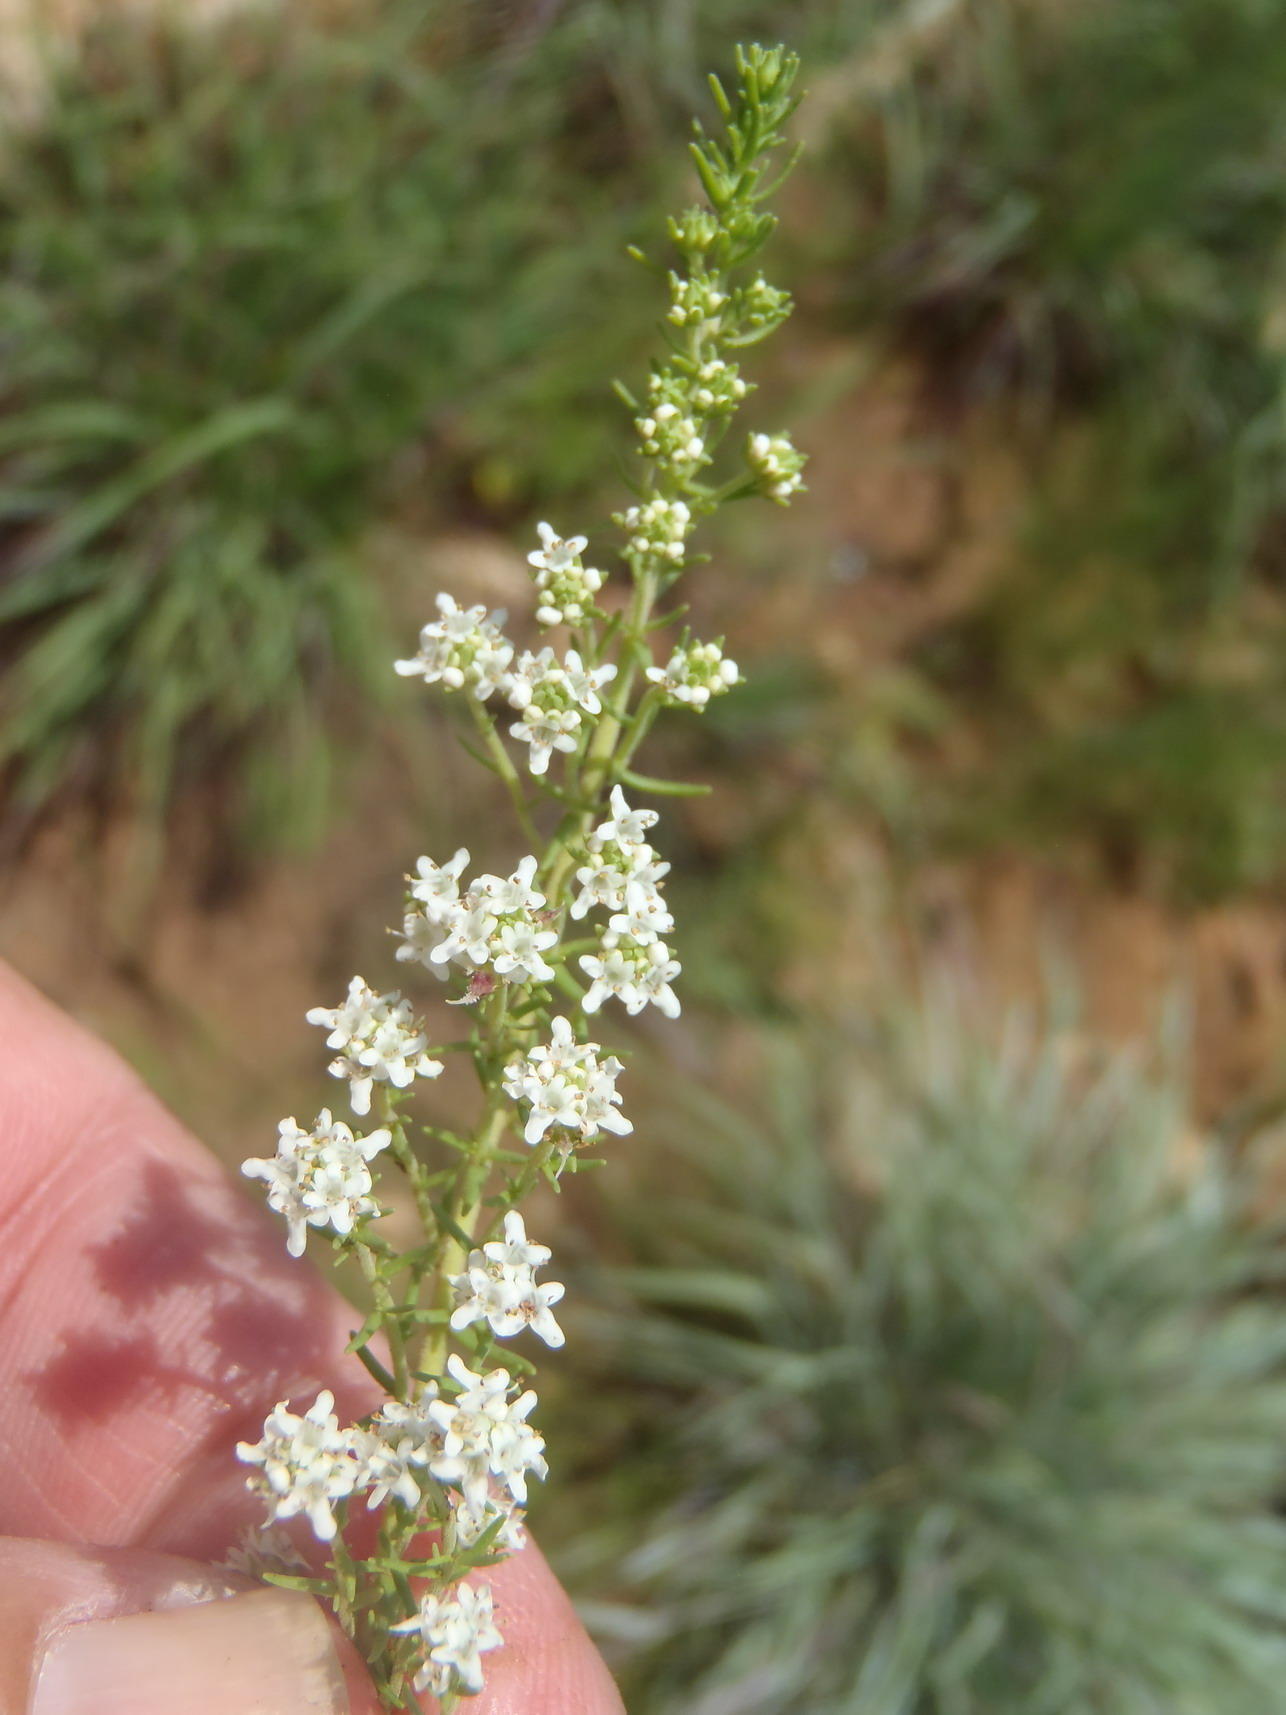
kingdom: Plantae
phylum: Tracheophyta
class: Magnoliopsida
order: Lamiales
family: Scrophulariaceae
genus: Selago
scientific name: Selago densiflora
